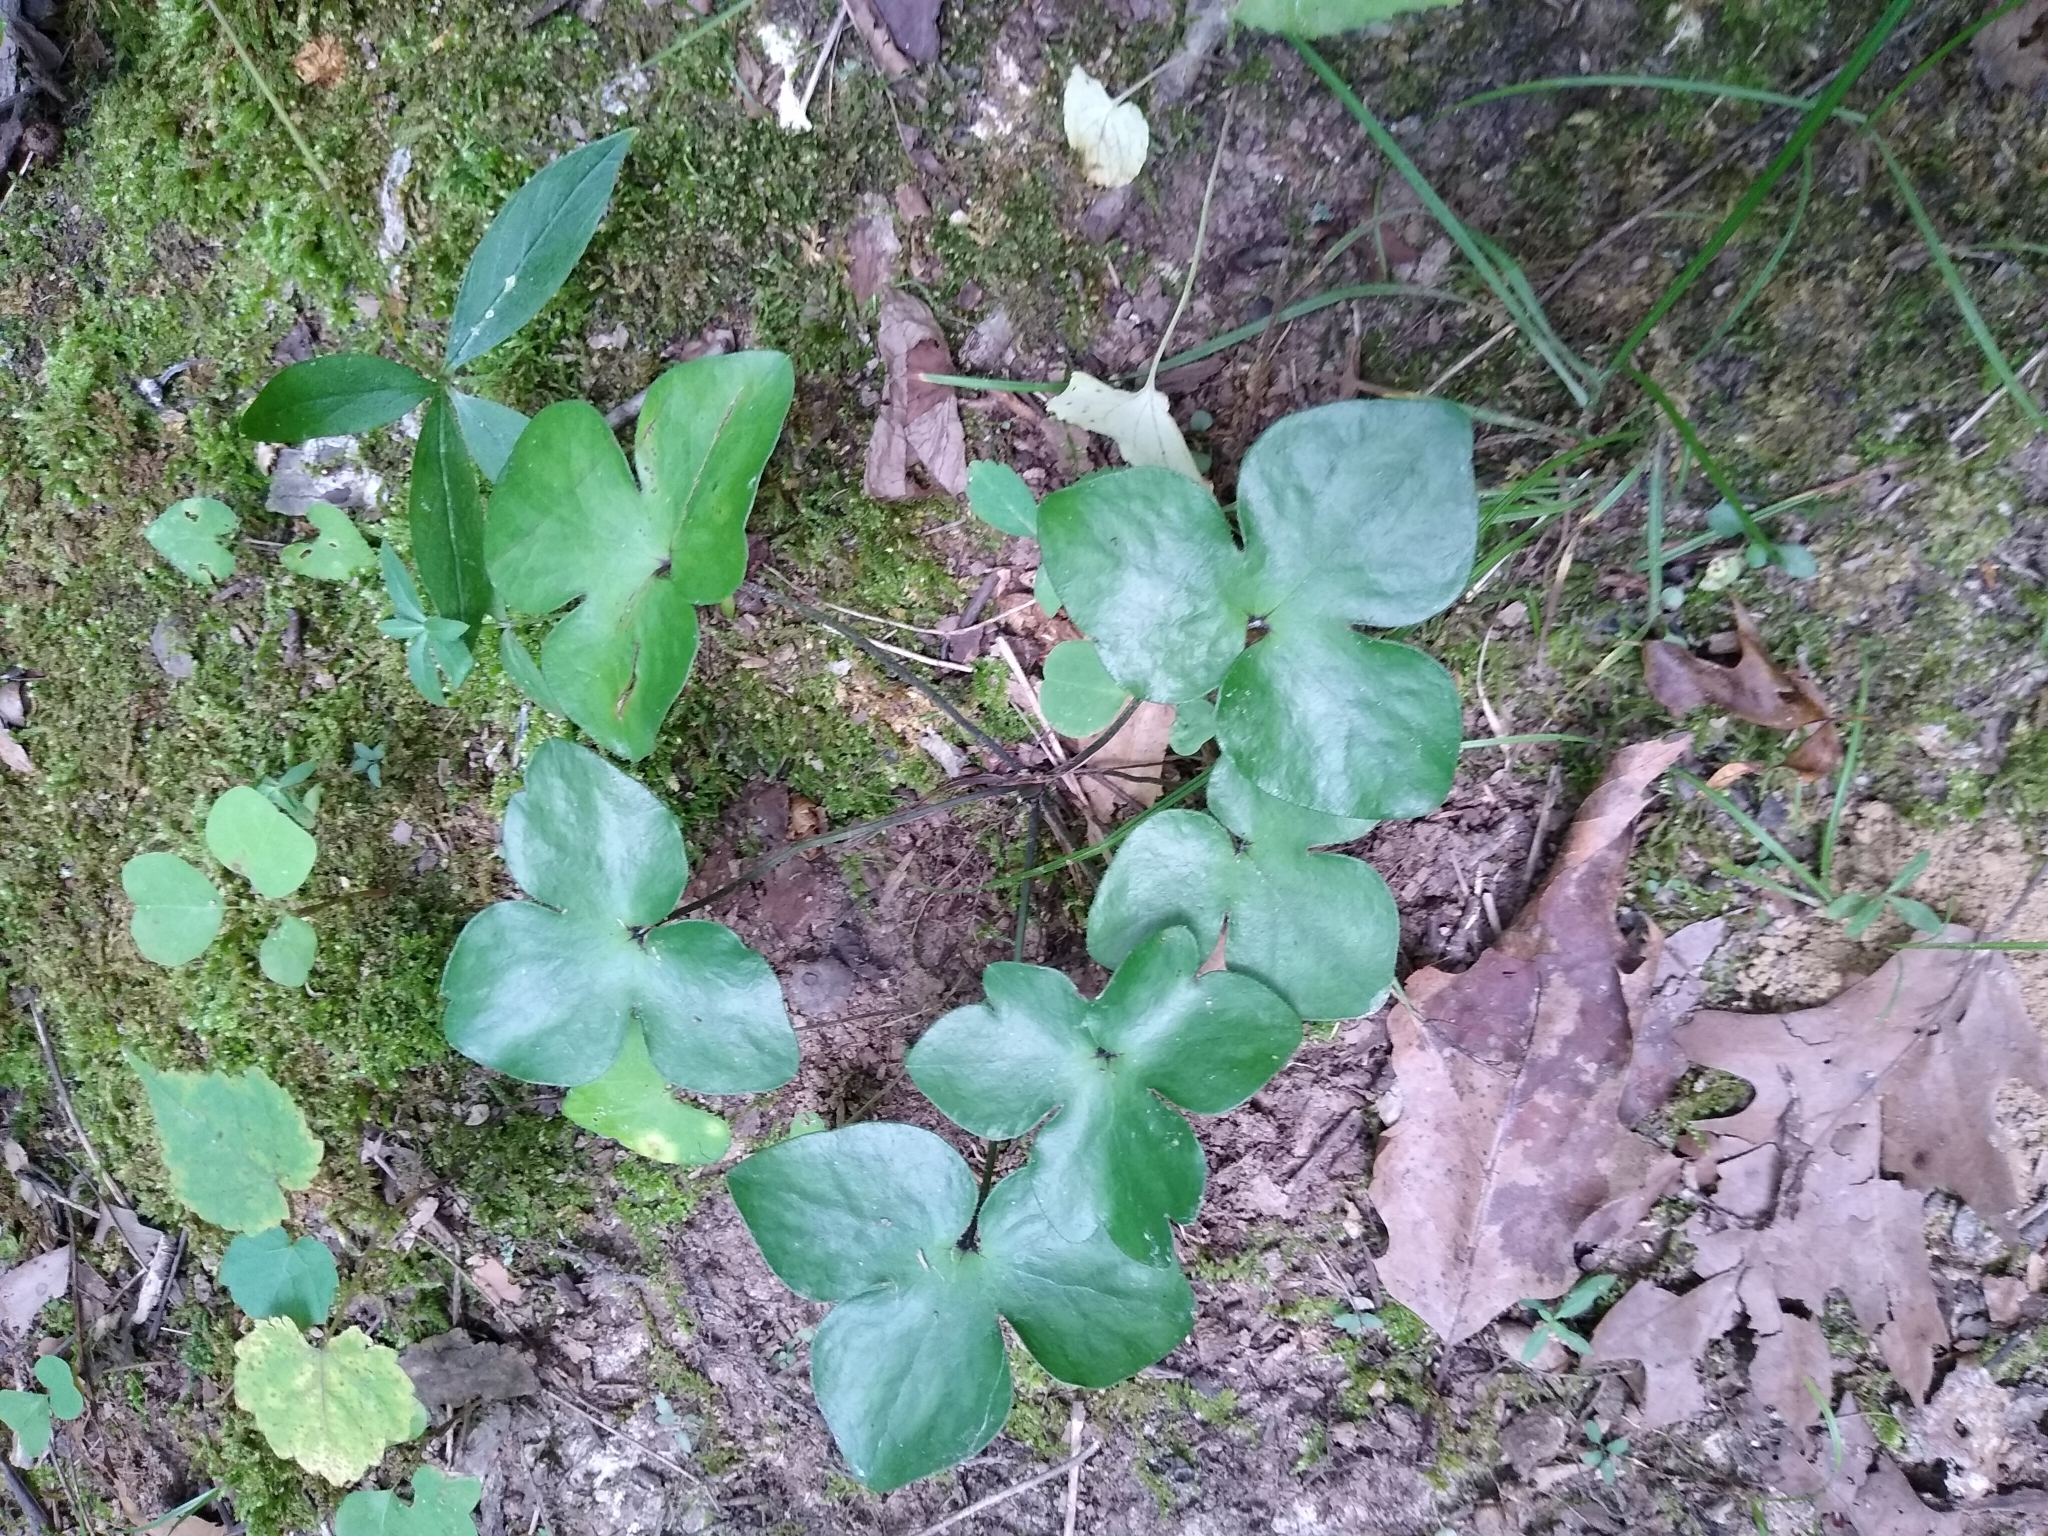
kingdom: Plantae
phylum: Tracheophyta
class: Magnoliopsida
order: Ranunculales
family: Ranunculaceae
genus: Hepatica
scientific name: Hepatica acutiloba
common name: Sharp-lobed hepatica
